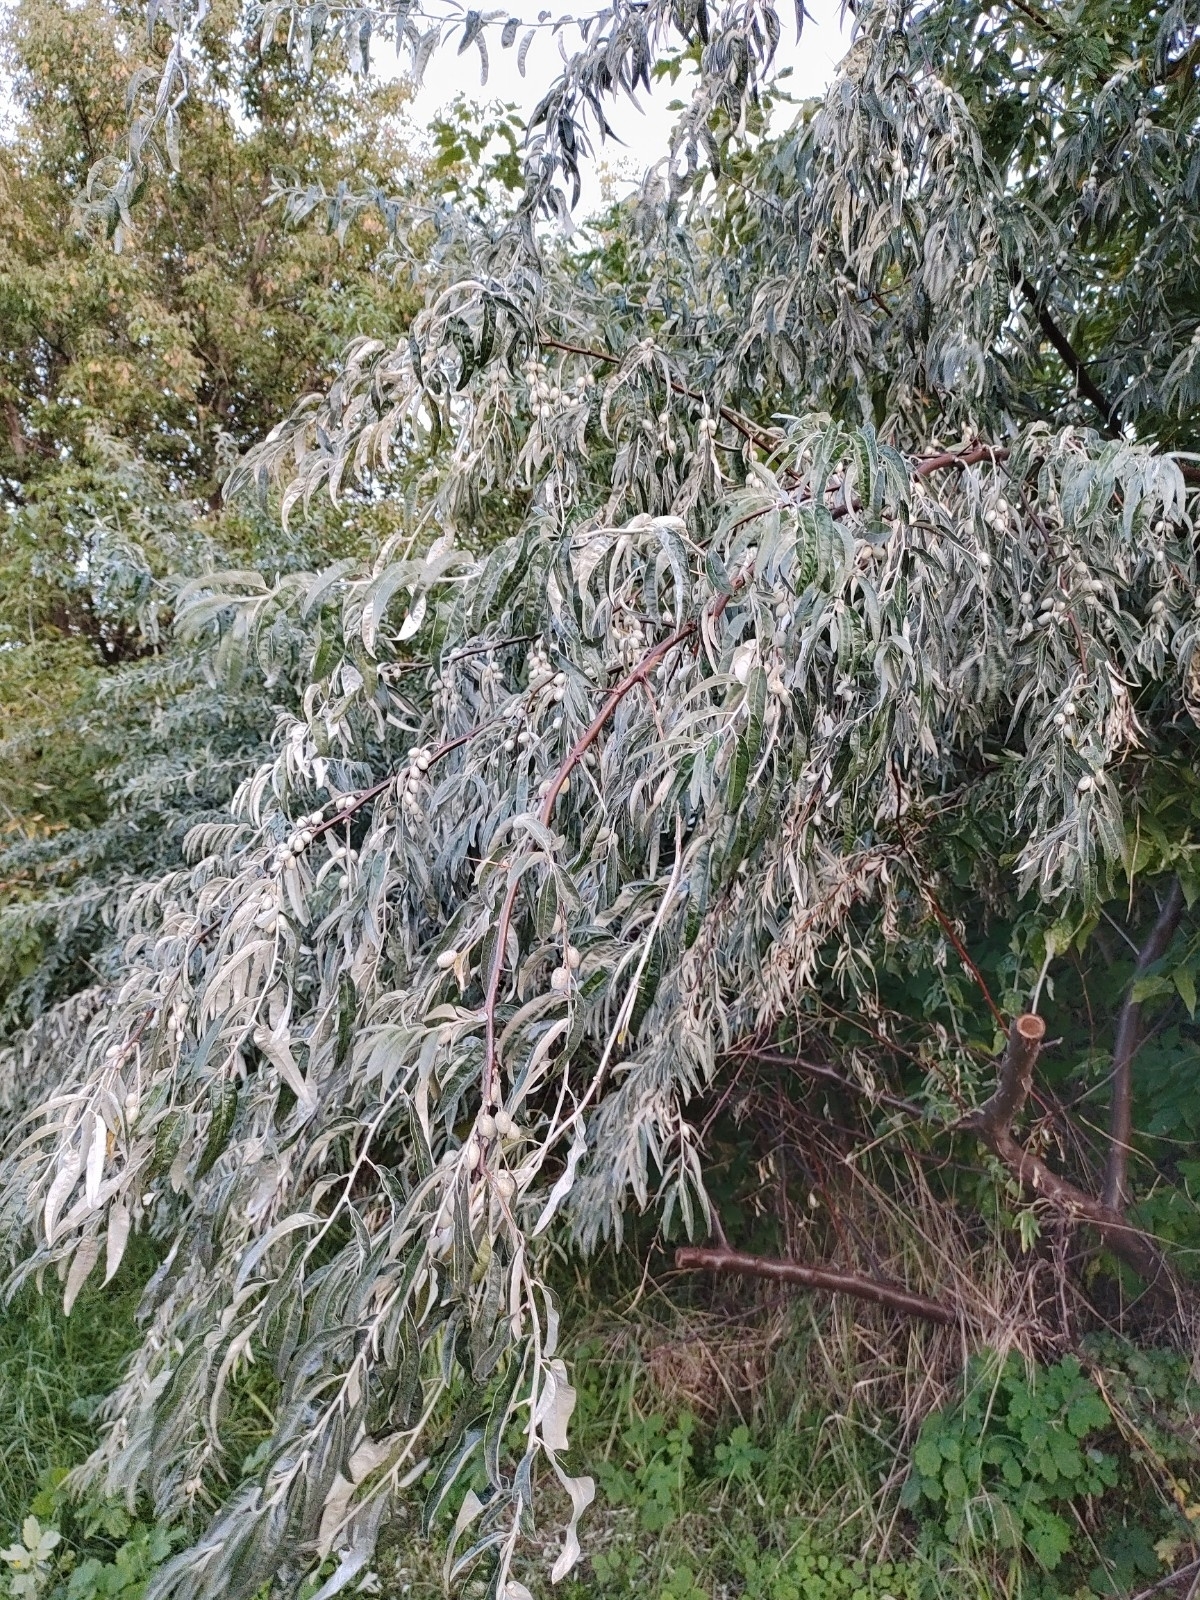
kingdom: Plantae
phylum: Tracheophyta
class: Magnoliopsida
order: Rosales
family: Elaeagnaceae
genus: Elaeagnus
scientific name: Elaeagnus angustifolia
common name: Russian olive
